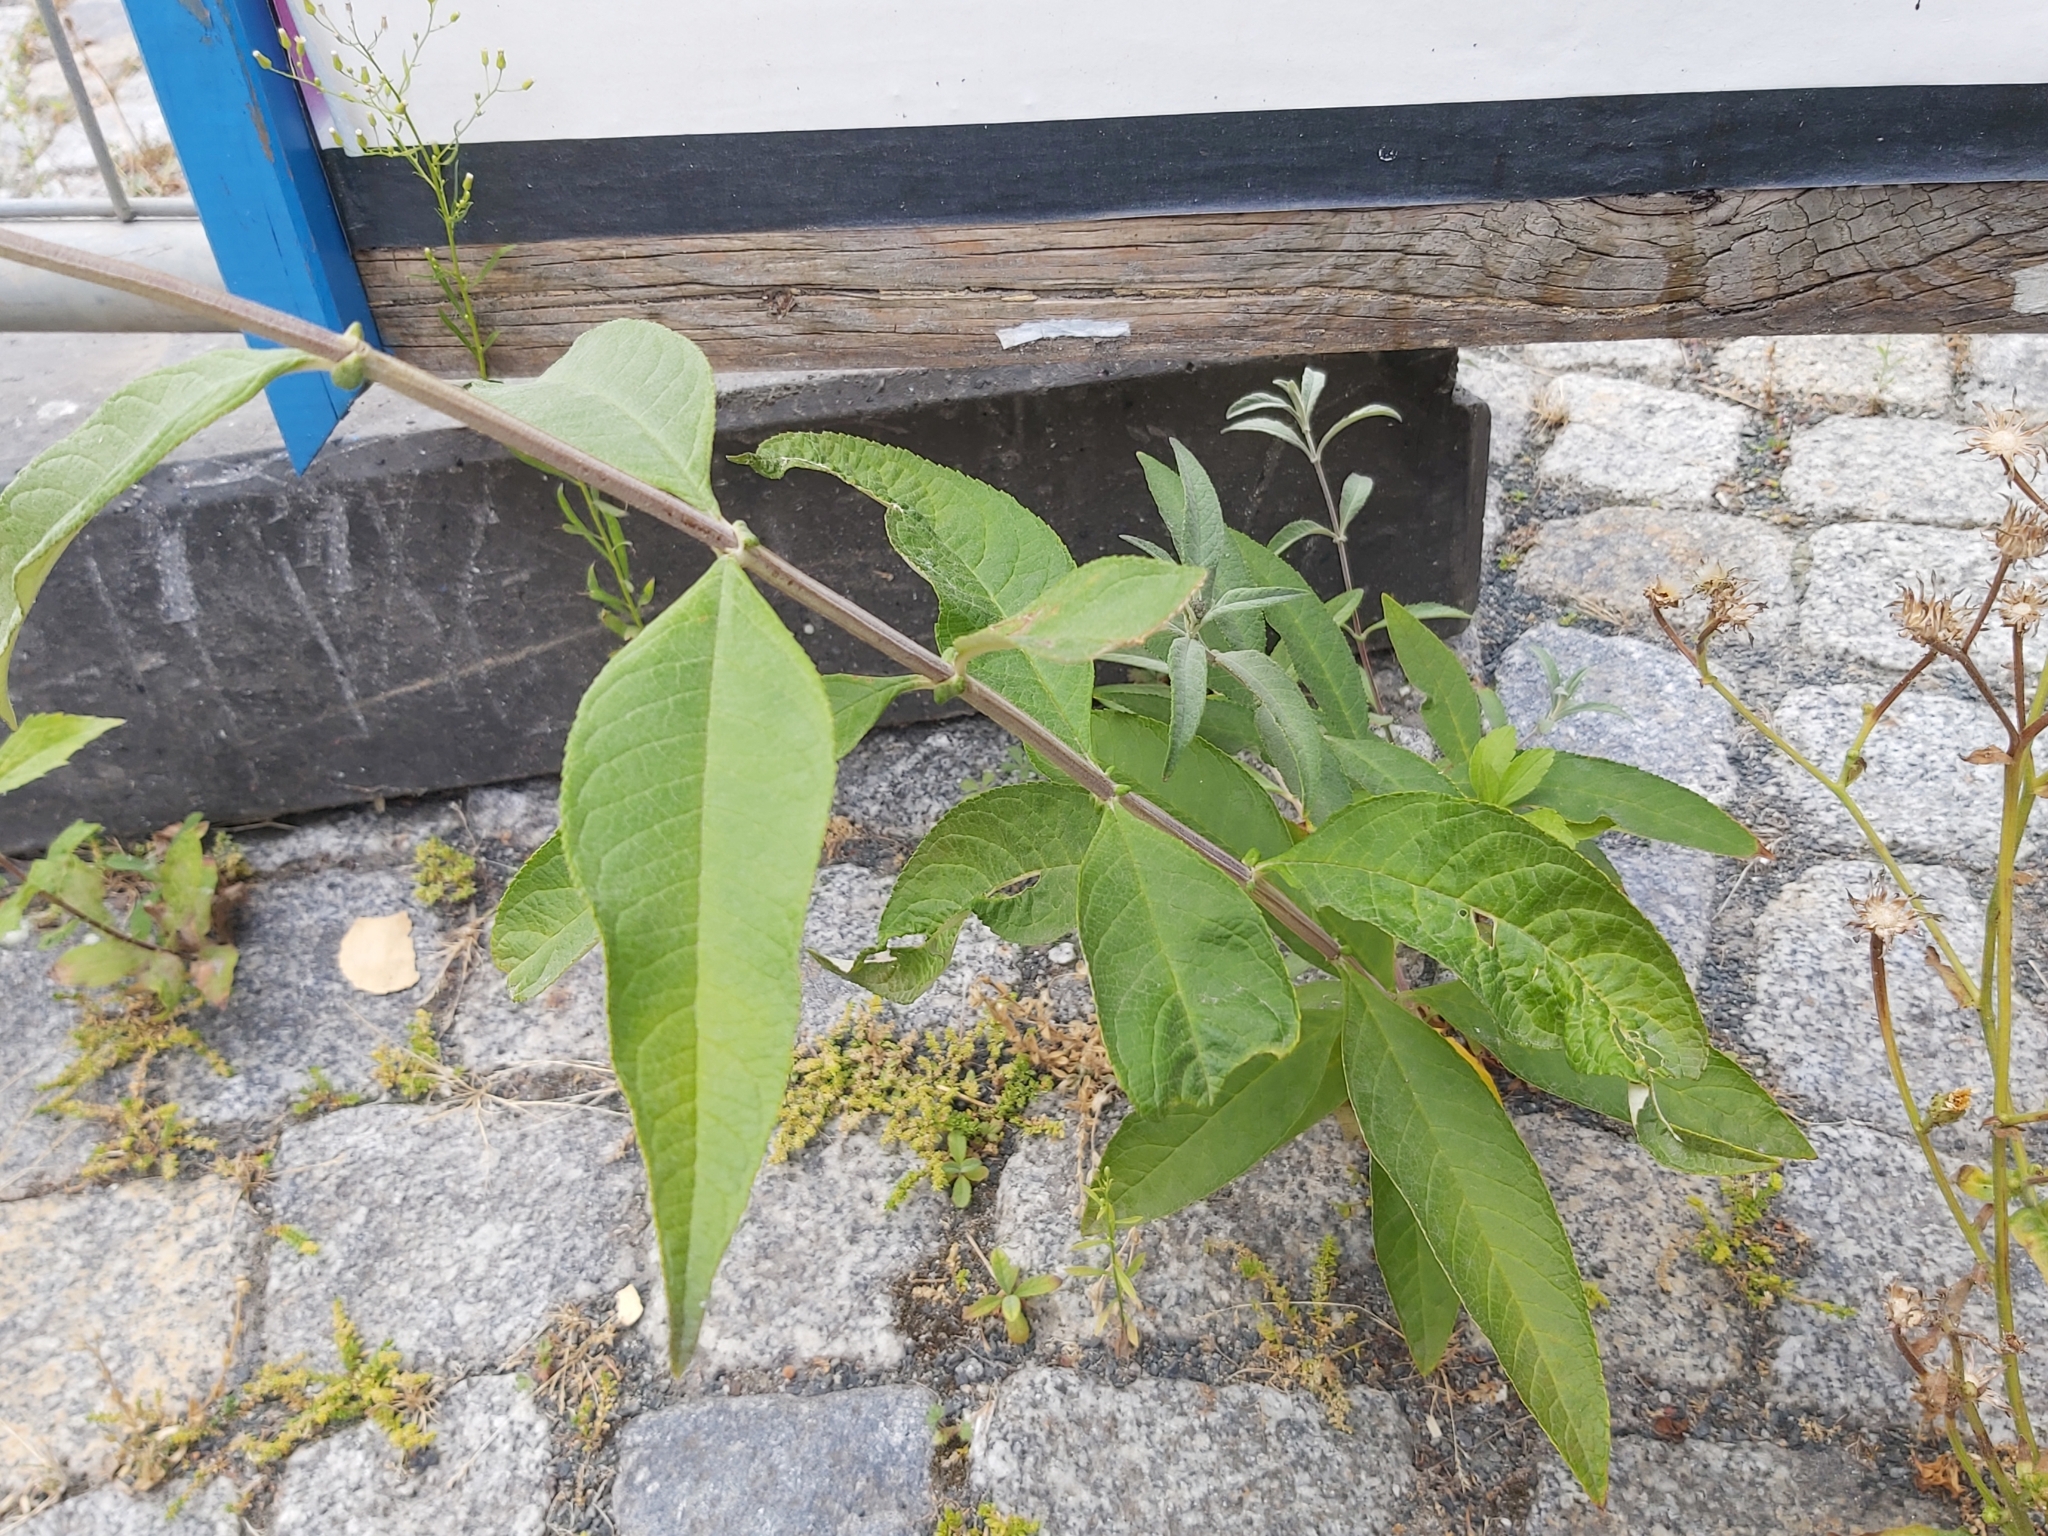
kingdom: Plantae
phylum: Tracheophyta
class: Magnoliopsida
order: Lamiales
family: Scrophulariaceae
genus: Buddleja
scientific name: Buddleja davidii
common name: Butterfly-bush
